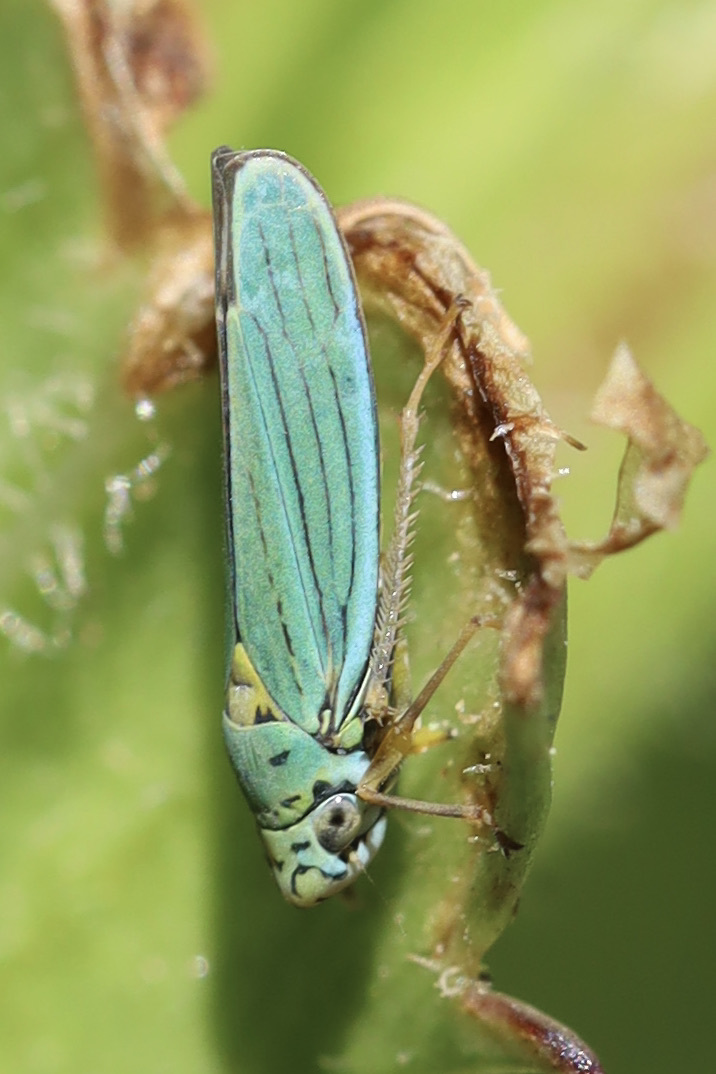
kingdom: Animalia
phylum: Arthropoda
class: Insecta
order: Hemiptera
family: Cicadellidae
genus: Graphocephala
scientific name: Graphocephala atropunctata
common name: Blue-green sharpshooter
